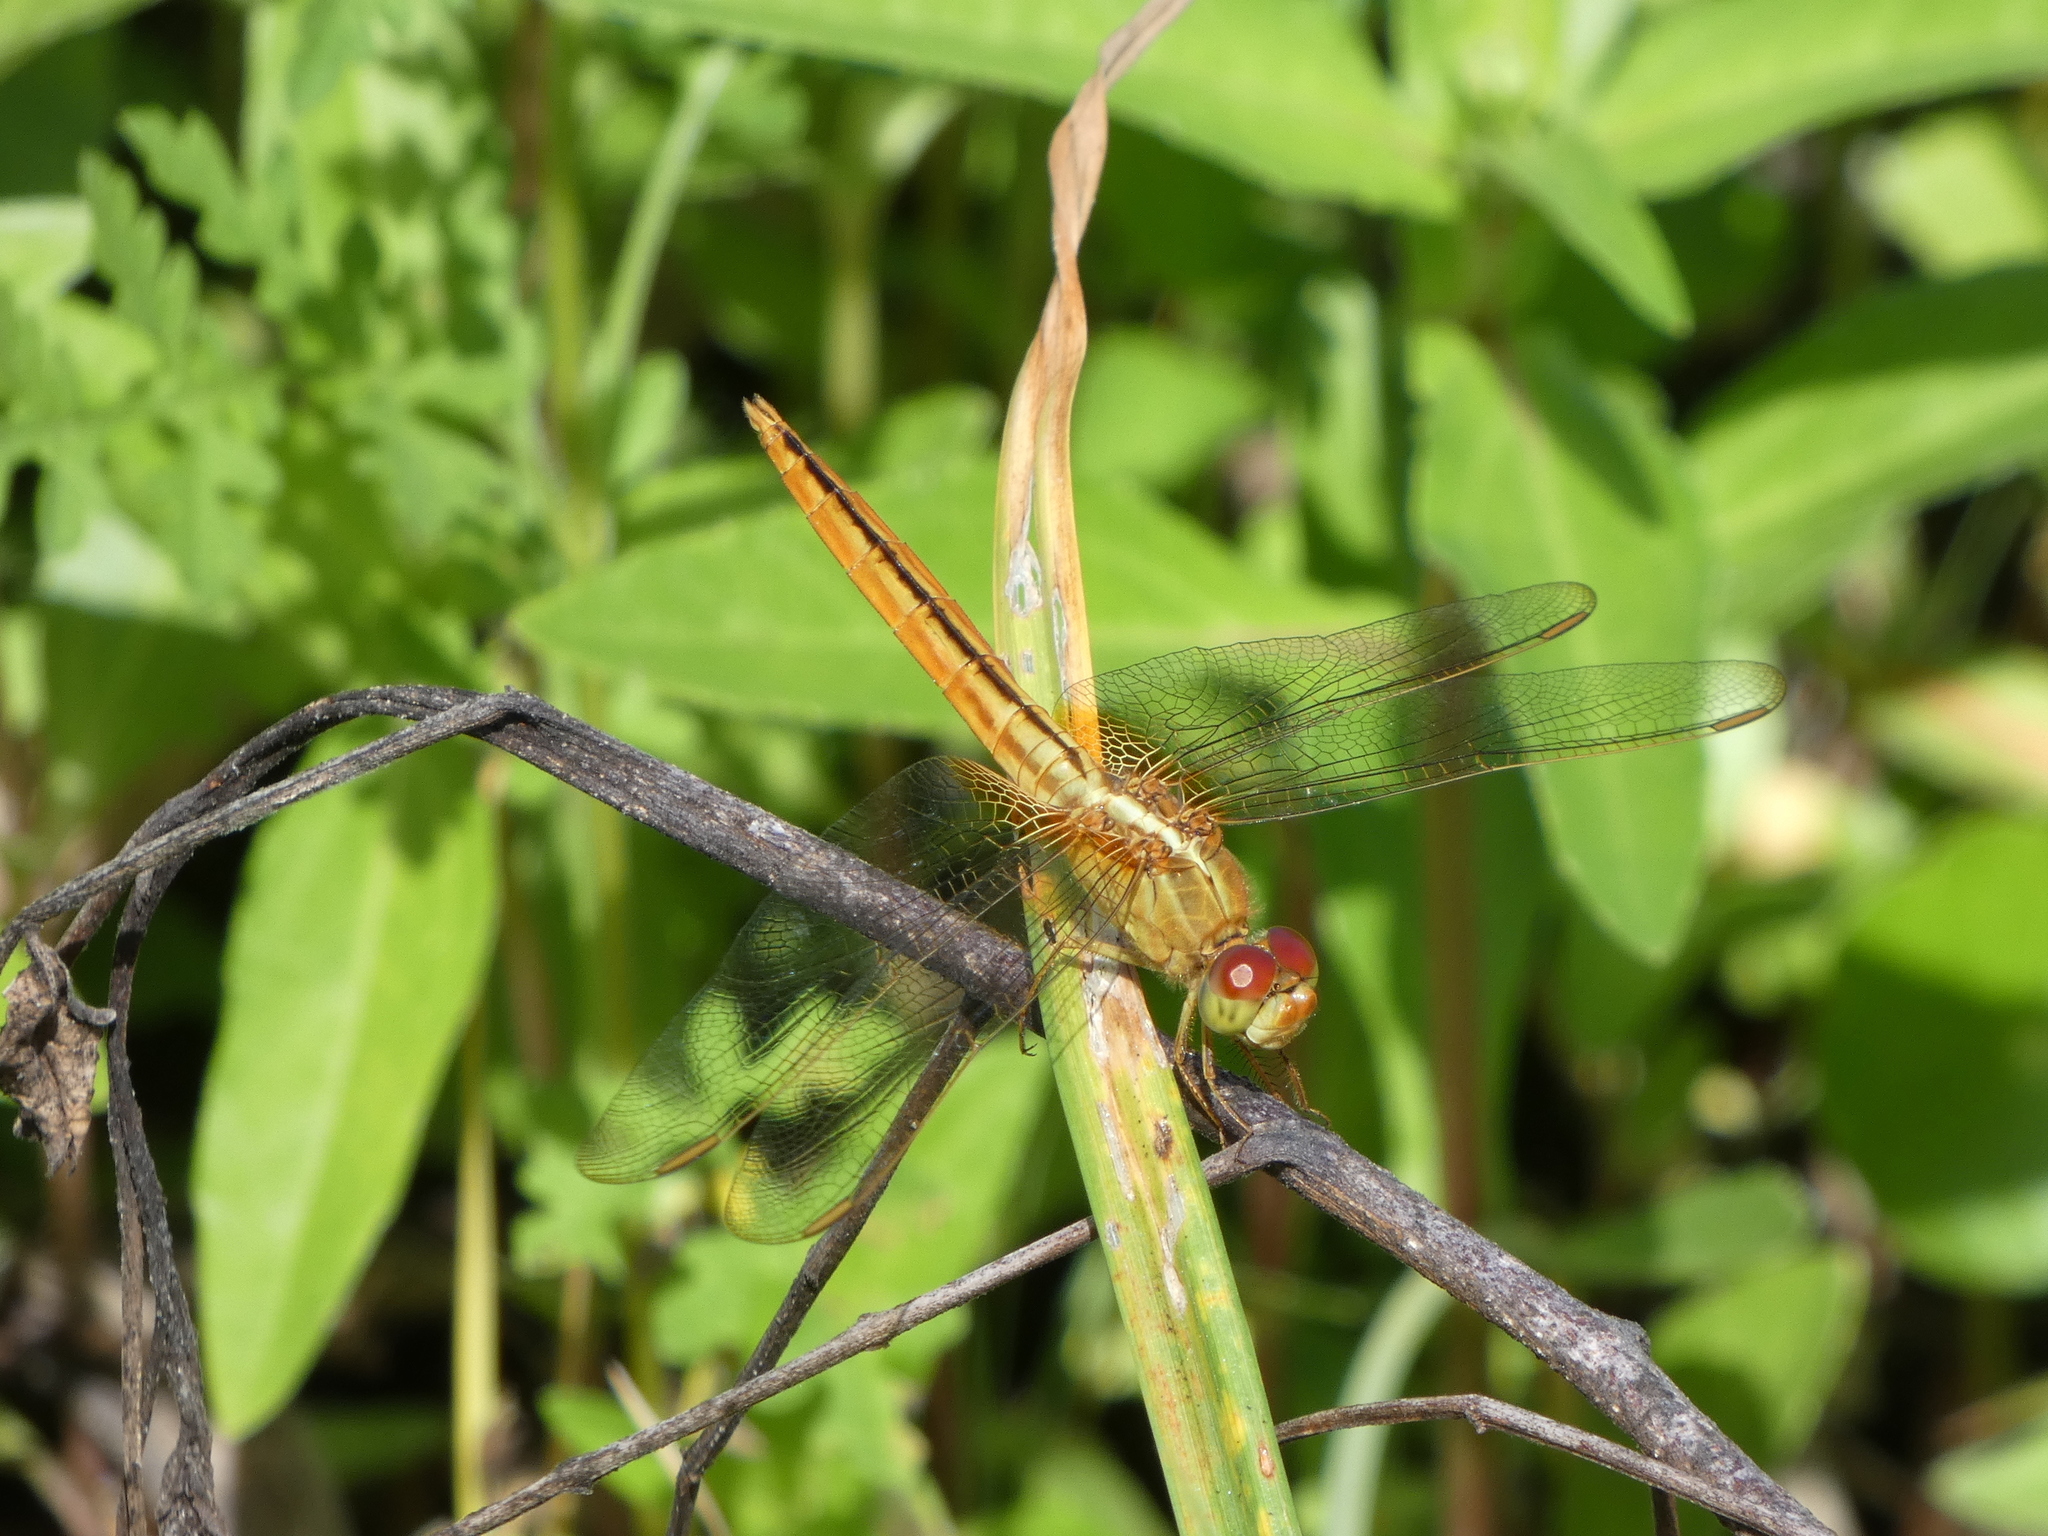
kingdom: Animalia
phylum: Arthropoda
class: Insecta
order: Odonata
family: Libellulidae
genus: Crocothemis
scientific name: Crocothemis servilia
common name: Scarlet skimmer
